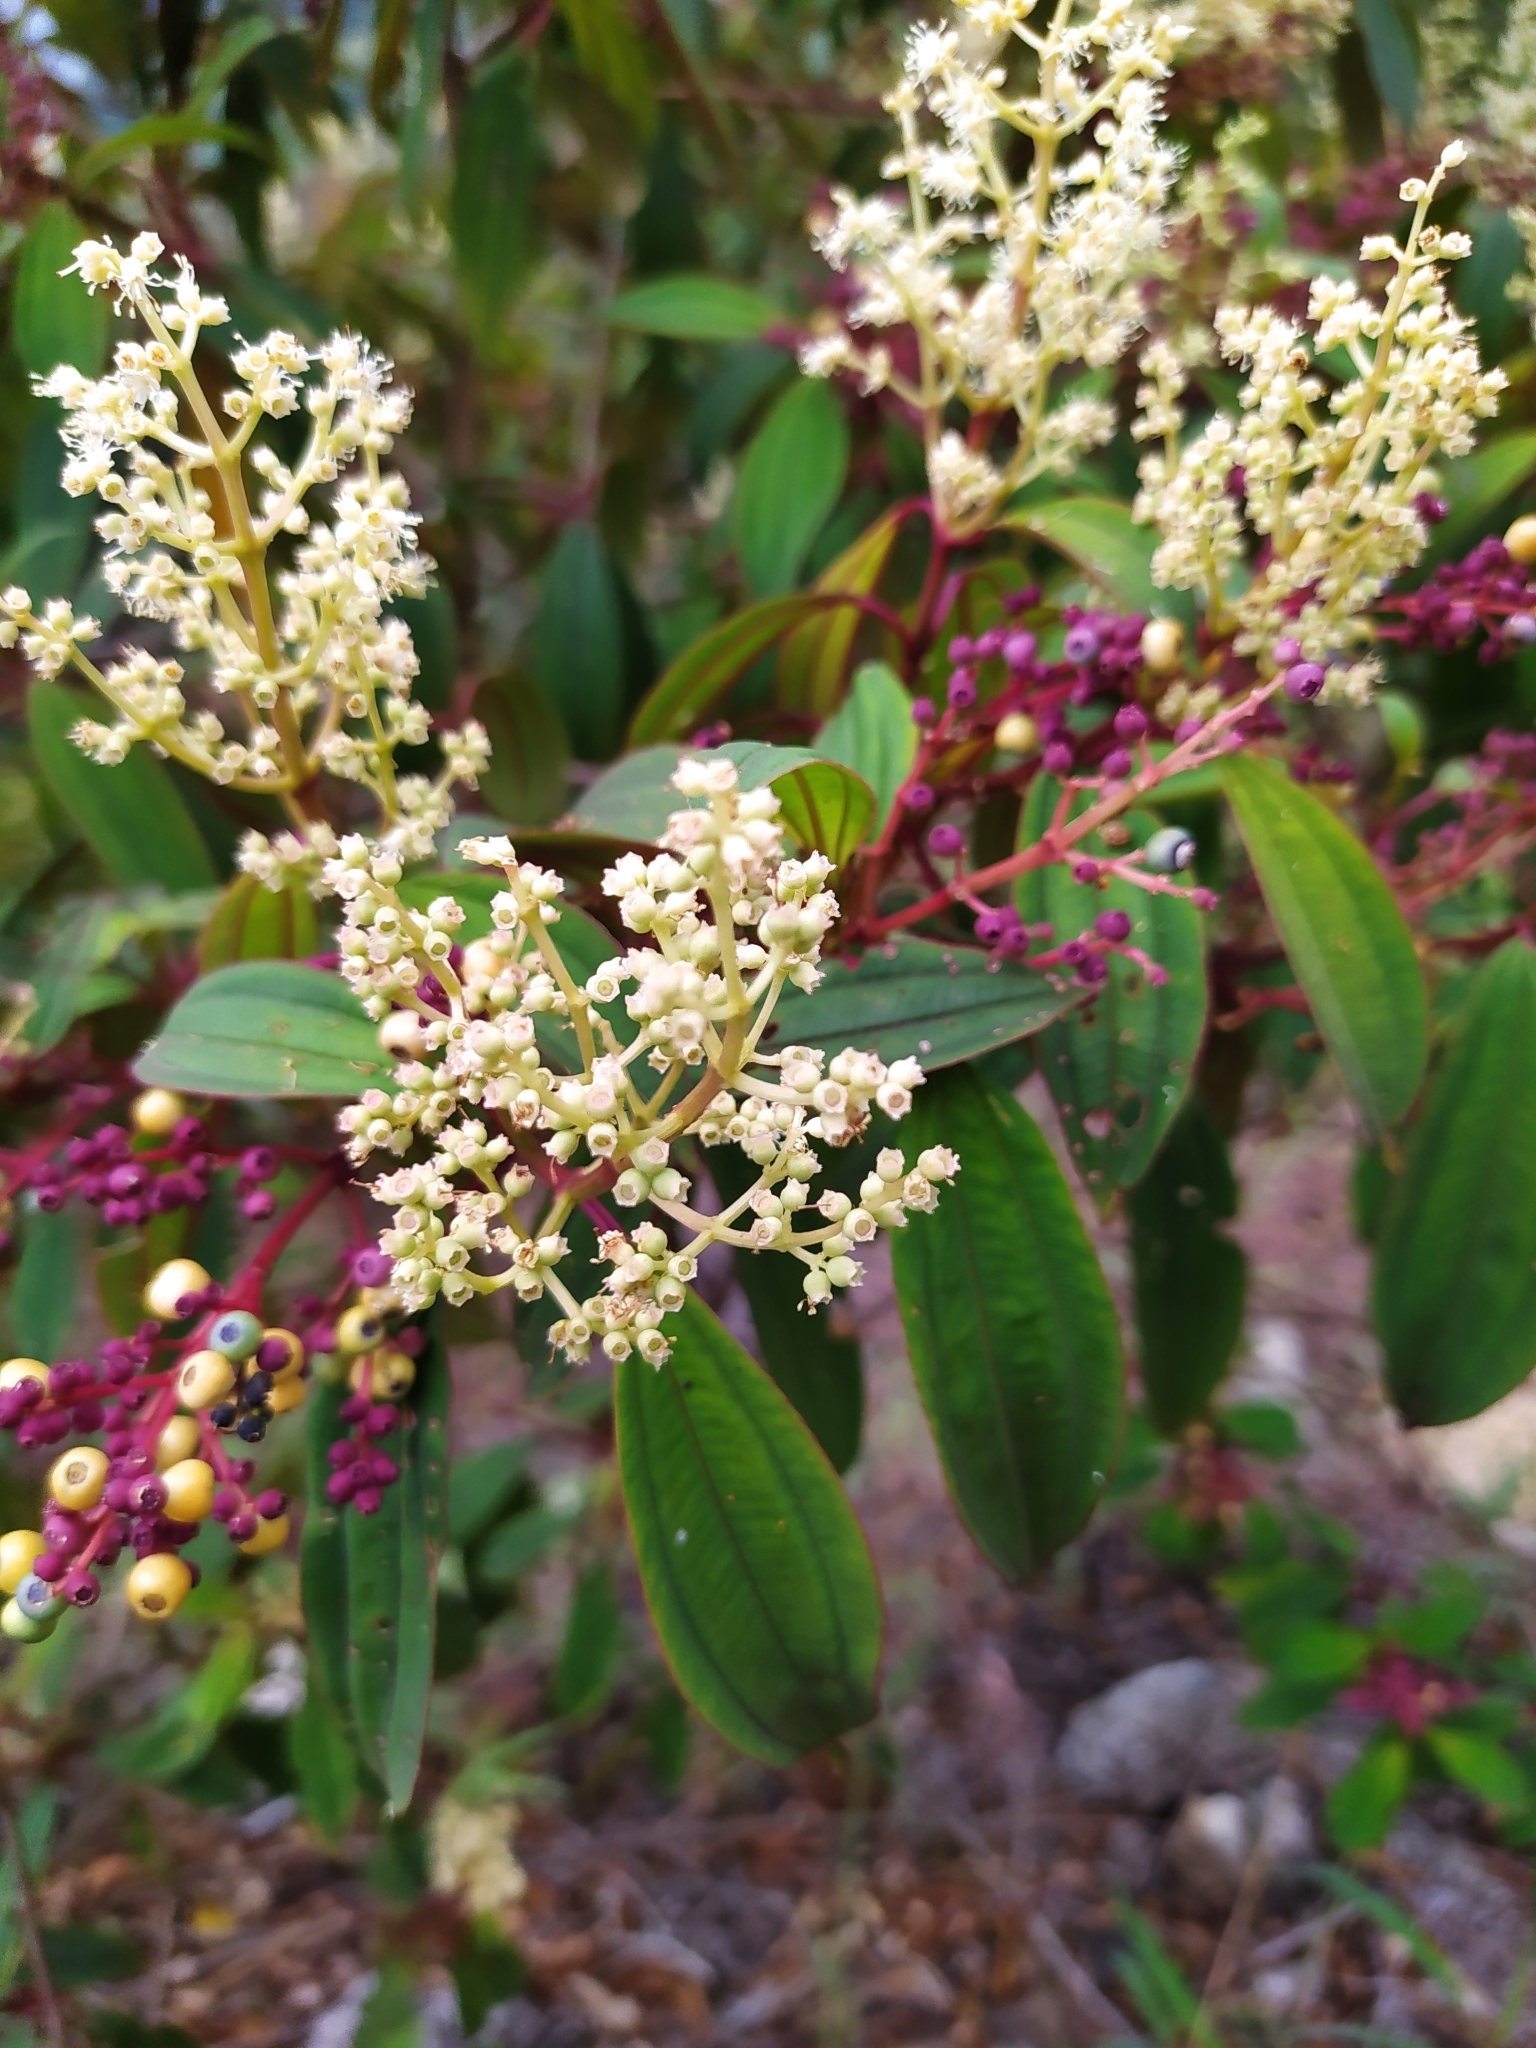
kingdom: Plantae
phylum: Tracheophyta
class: Magnoliopsida
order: Myrtales
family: Melastomataceae
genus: Miconia
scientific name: Miconia theizans
